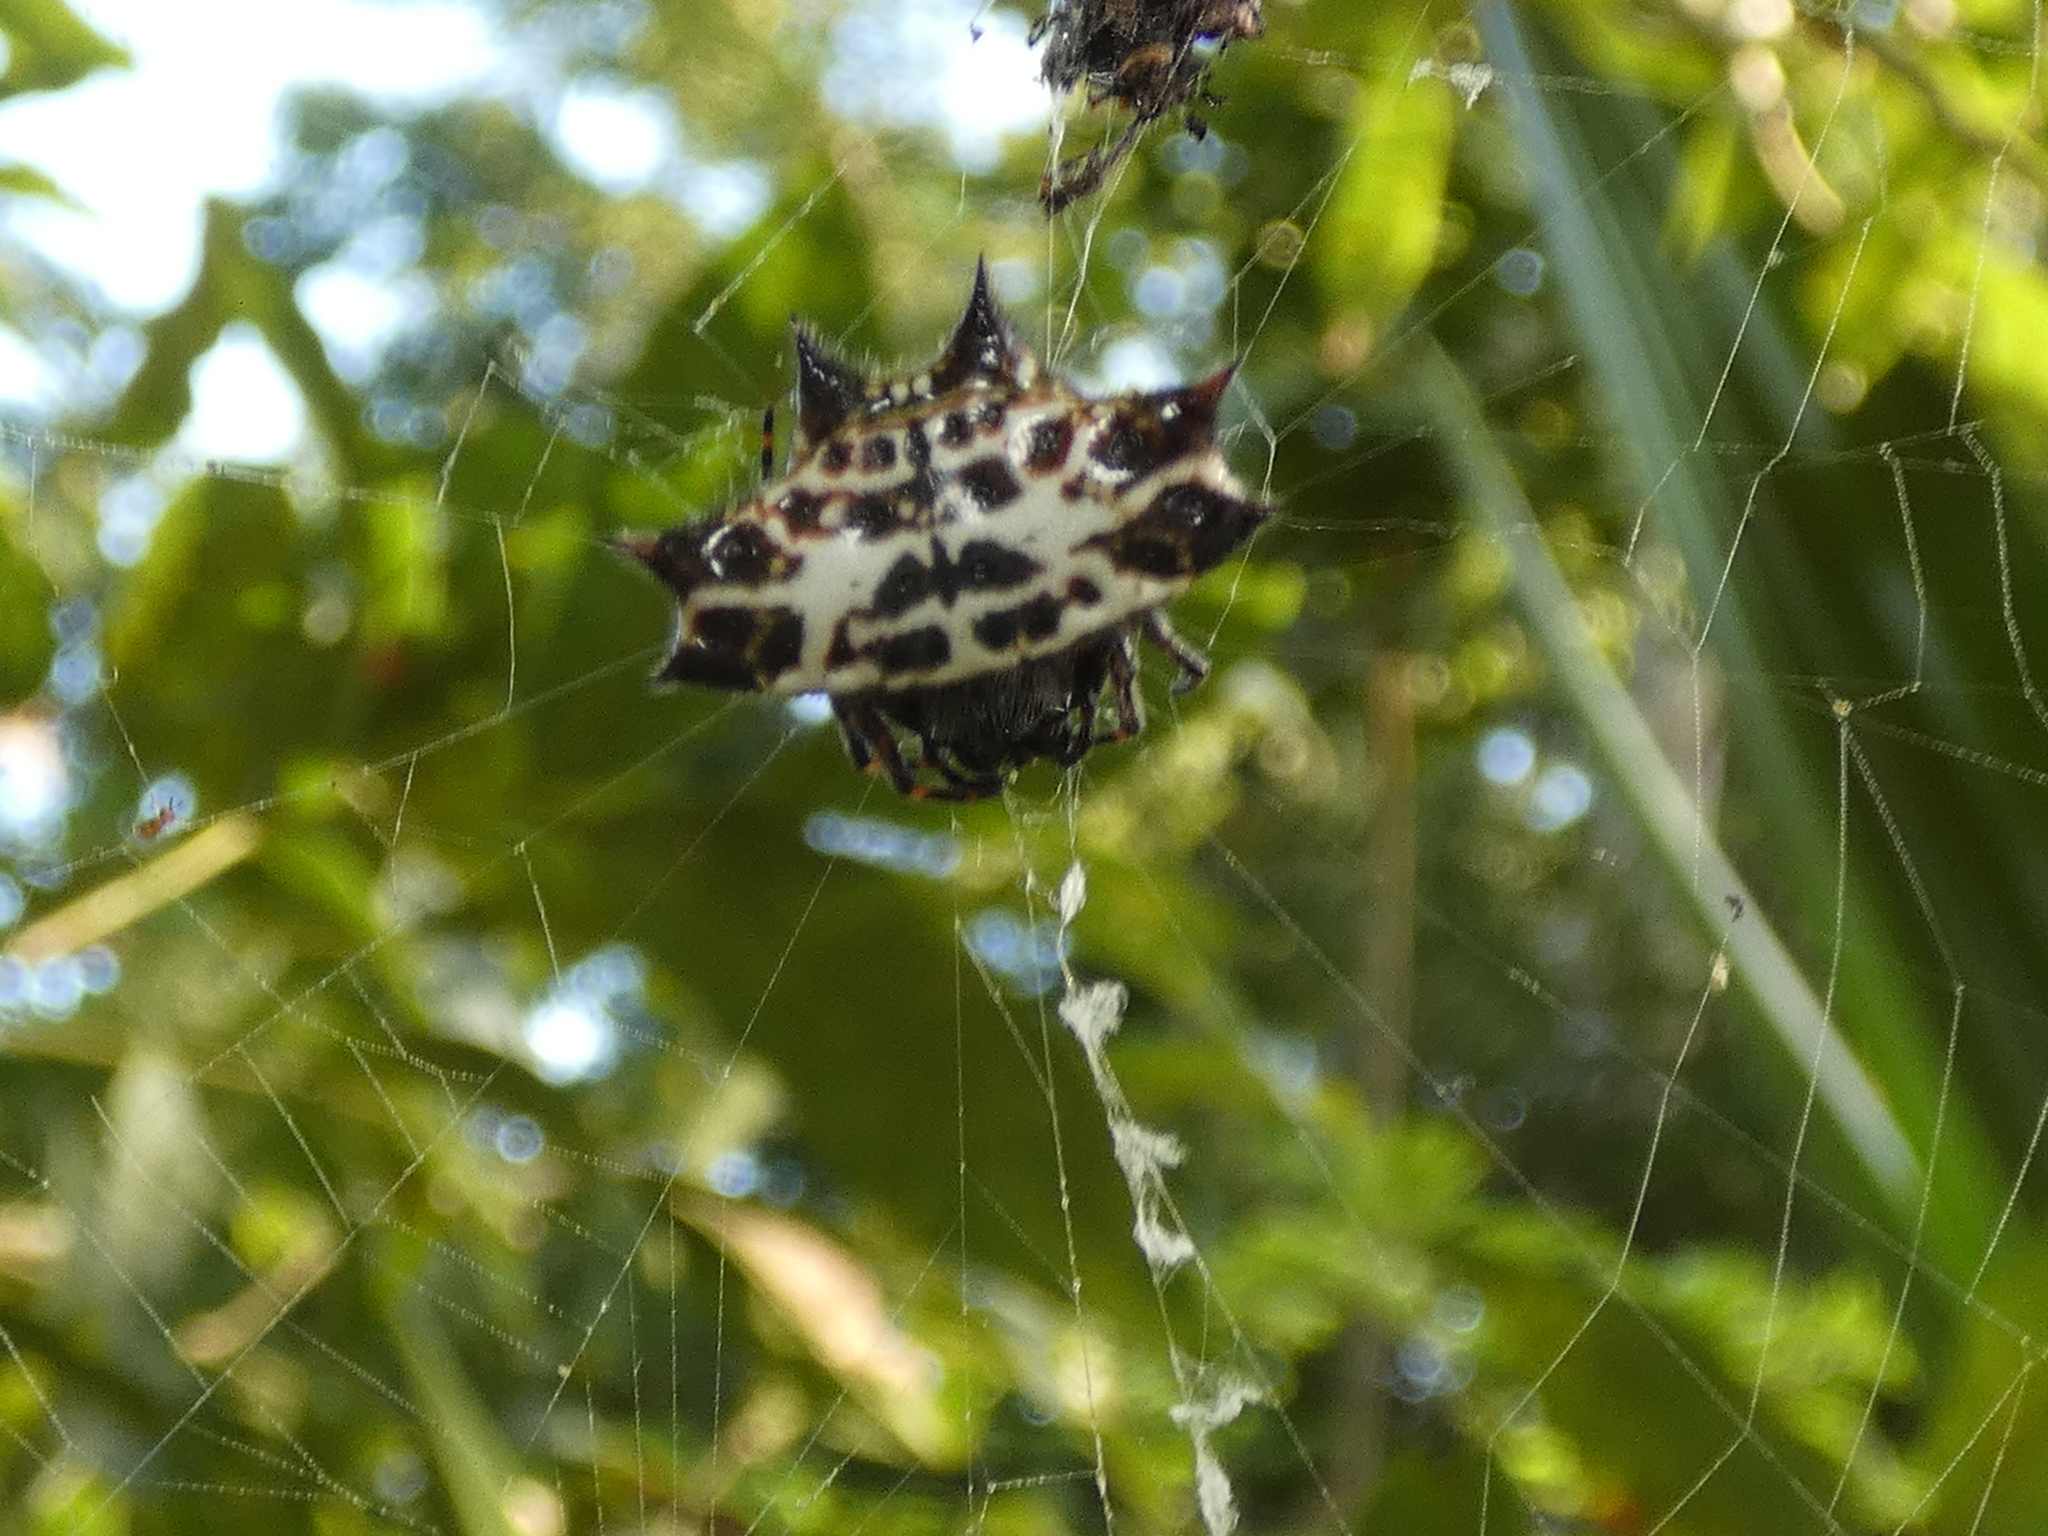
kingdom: Animalia
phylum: Arthropoda
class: Arachnida
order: Araneae
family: Araneidae
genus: Gasteracantha
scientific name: Gasteracantha cancriformis
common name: Orb weavers
